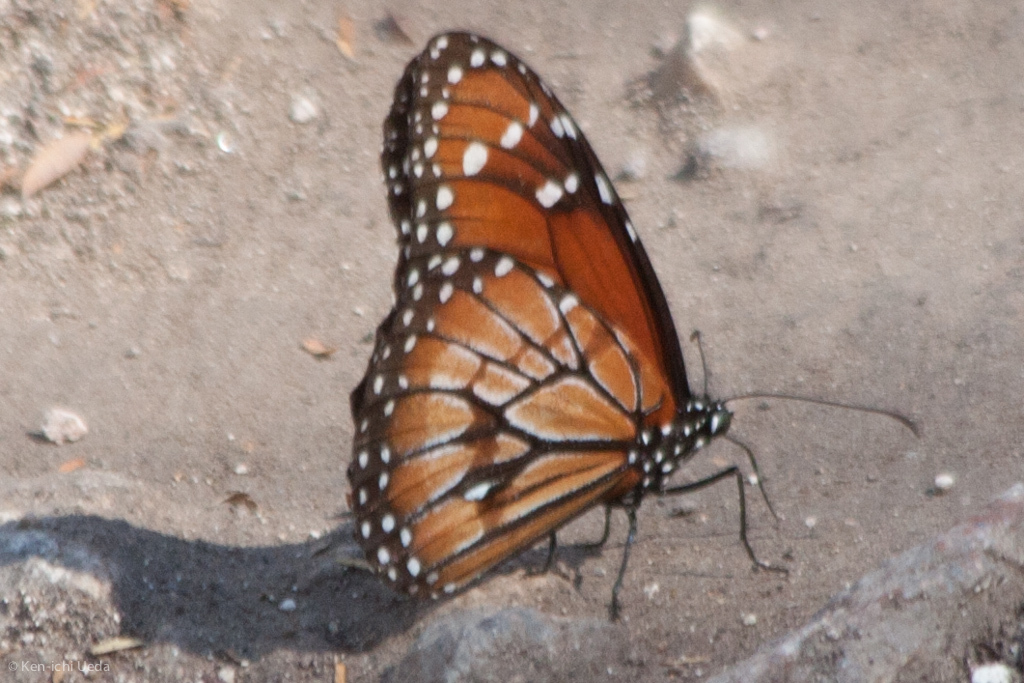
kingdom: Animalia
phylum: Arthropoda
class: Insecta
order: Lepidoptera
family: Nymphalidae
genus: Danaus
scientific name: Danaus eresimus
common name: Soldier
